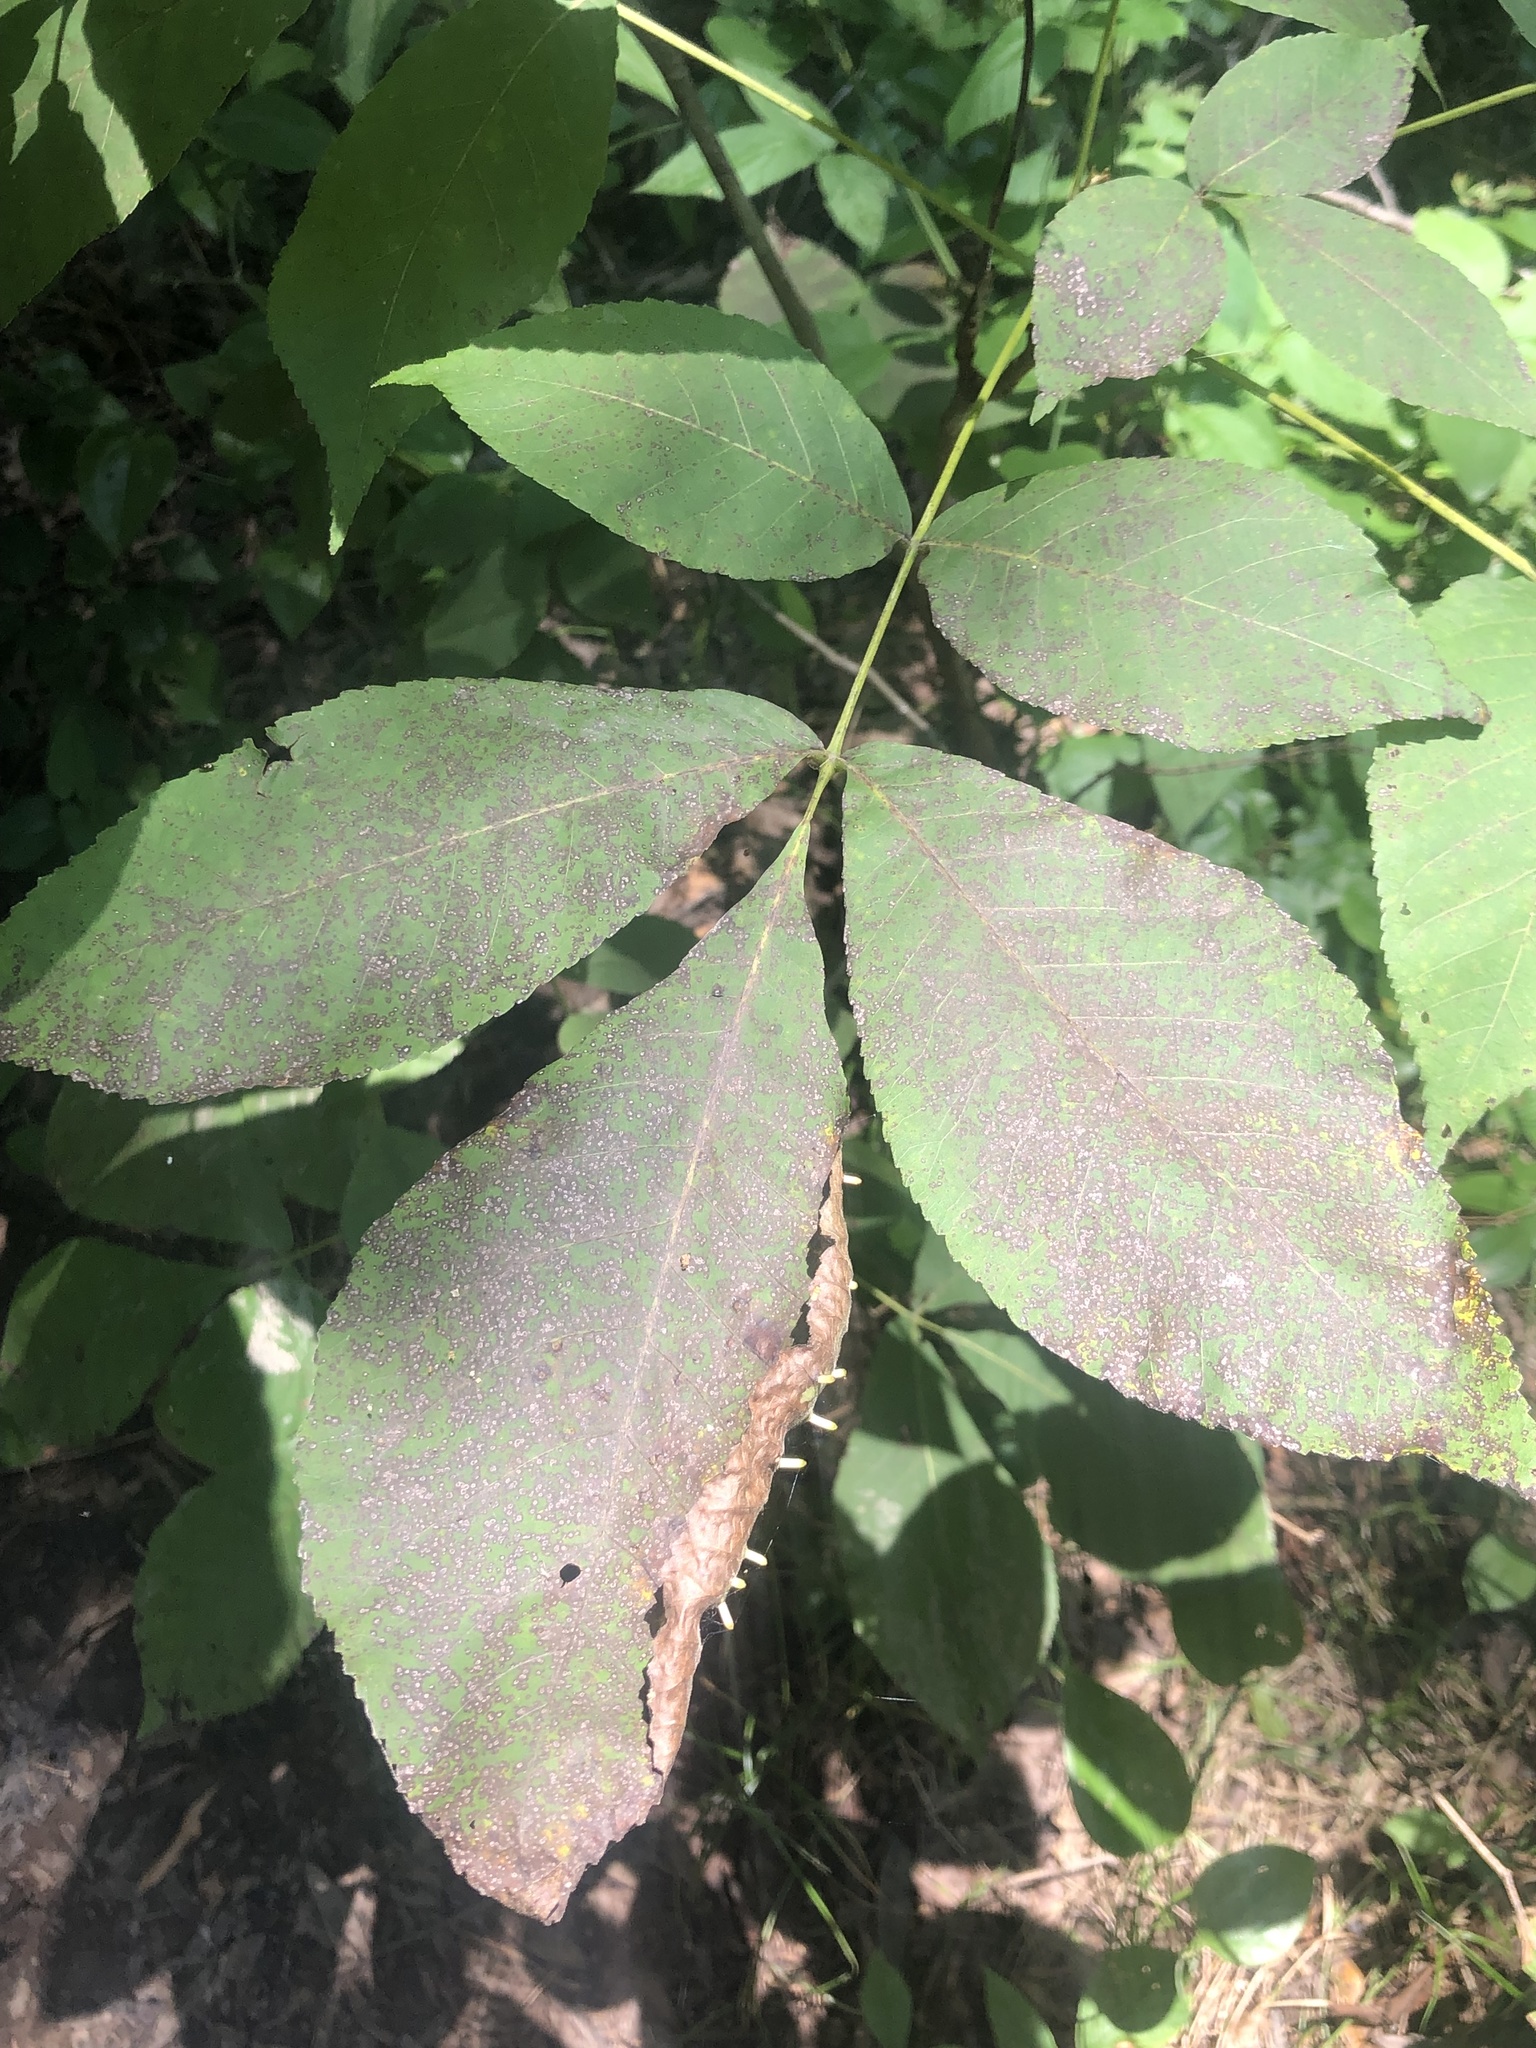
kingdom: Animalia
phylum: Arthropoda
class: Insecta
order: Diptera
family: Cecidomyiidae
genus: Caryomyia
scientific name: Caryomyia tubicola
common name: Hickory bullet gall midge
